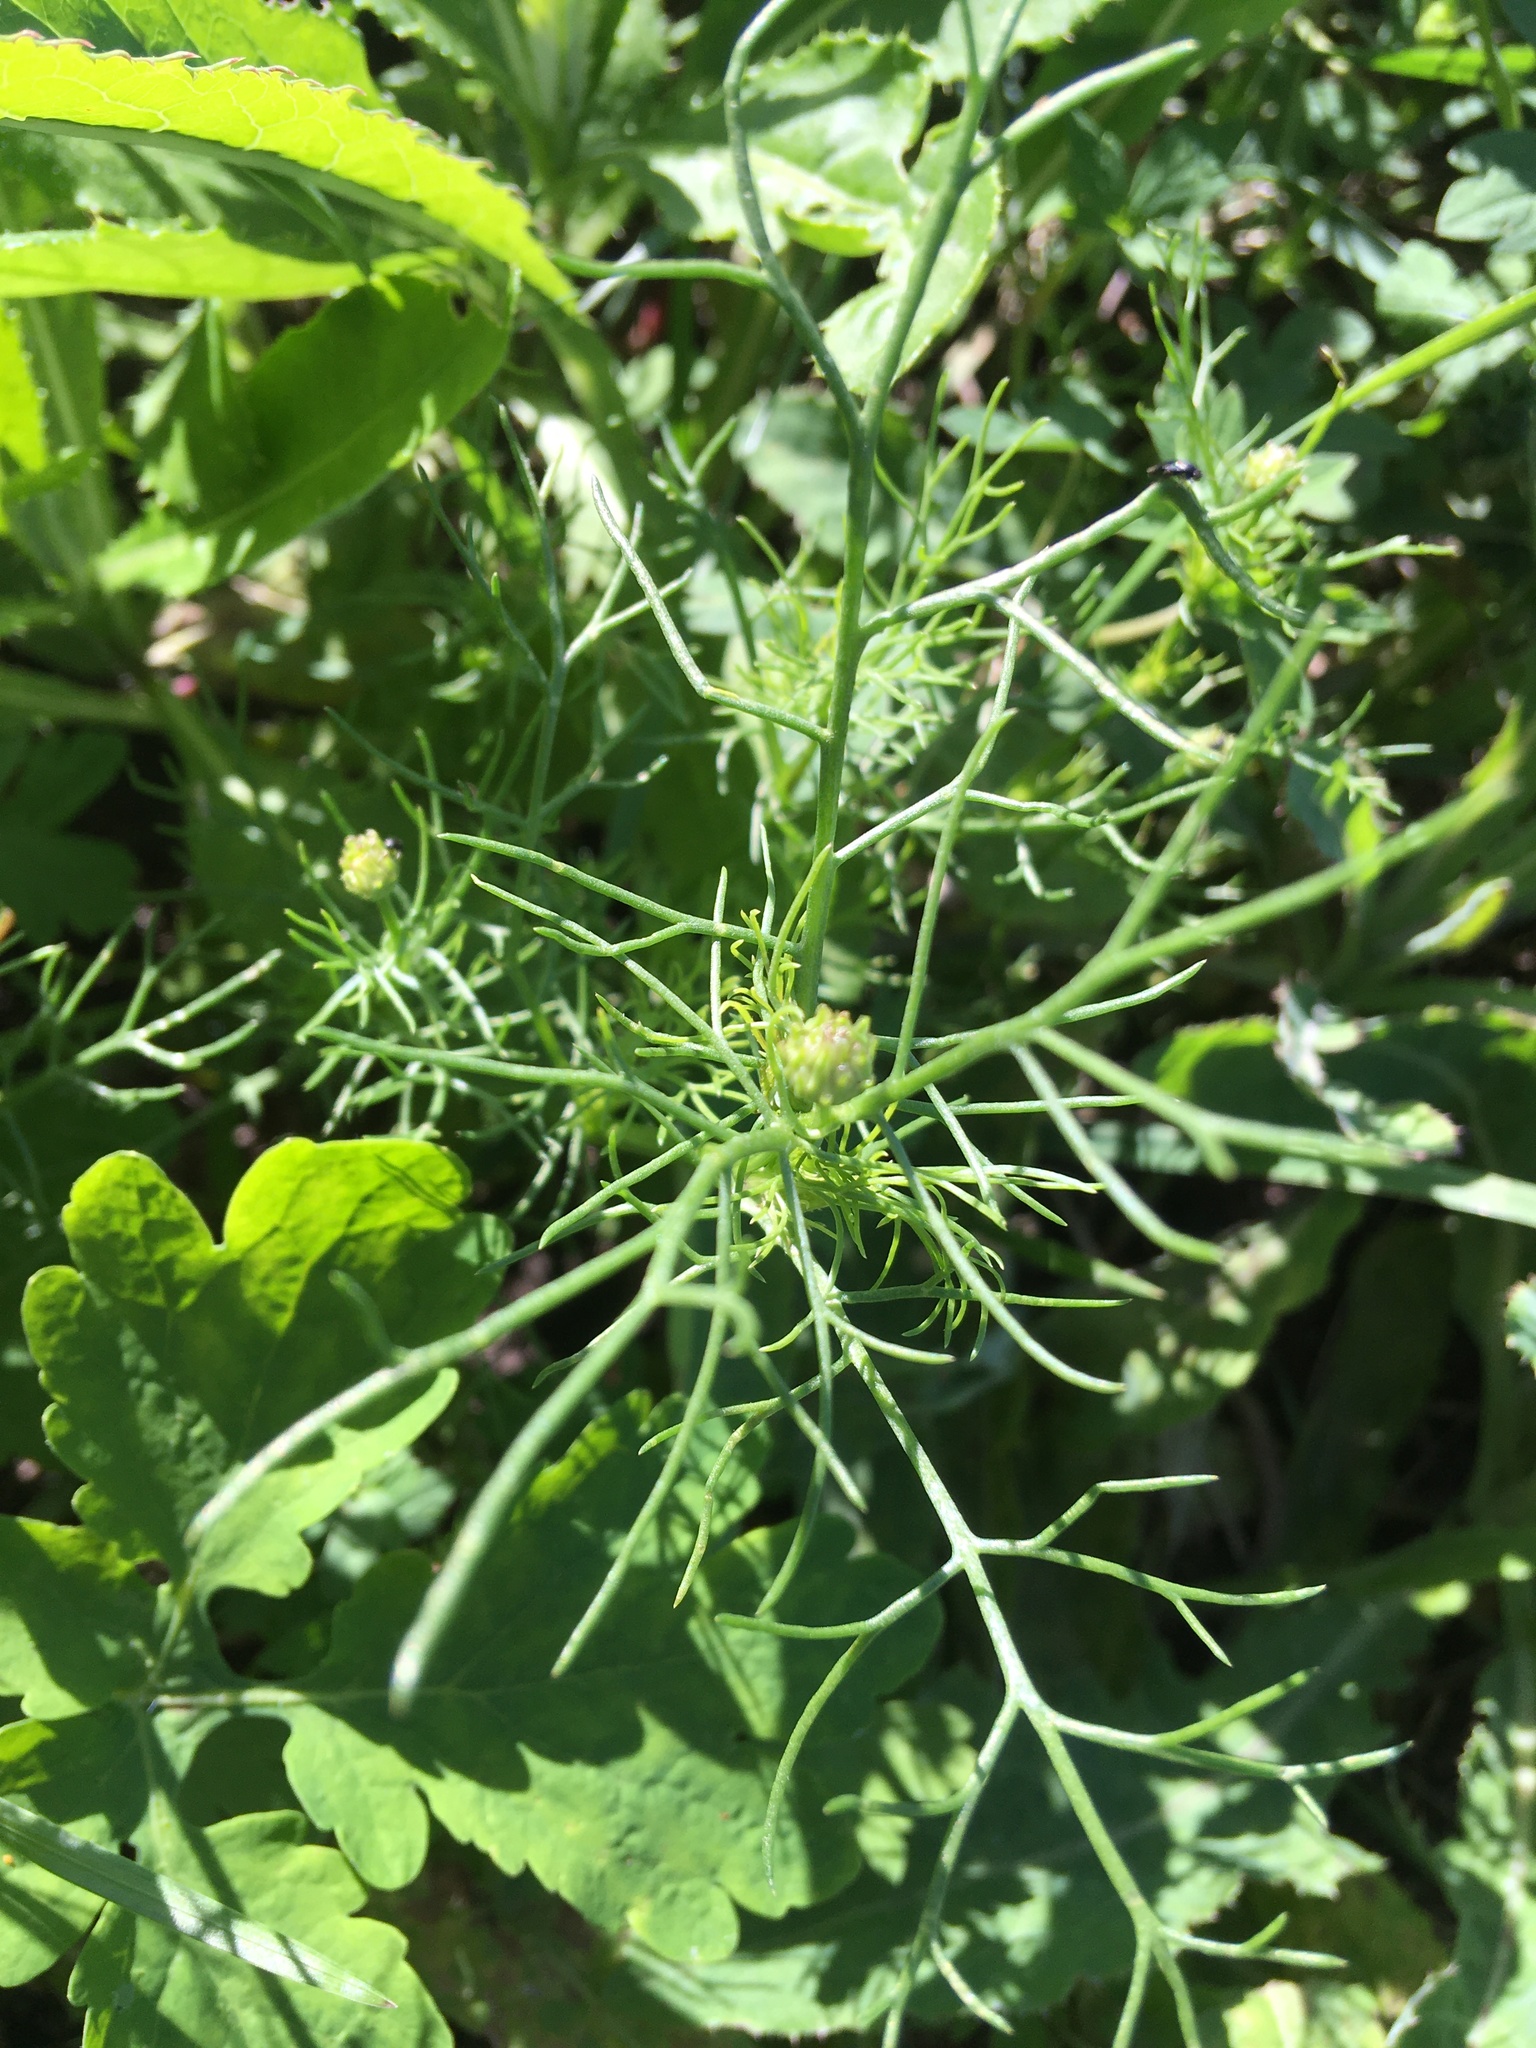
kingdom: Plantae
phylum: Tracheophyta
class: Magnoliopsida
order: Asterales
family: Asteraceae
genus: Tripleurospermum
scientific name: Tripleurospermum inodorum
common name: Scentless mayweed
